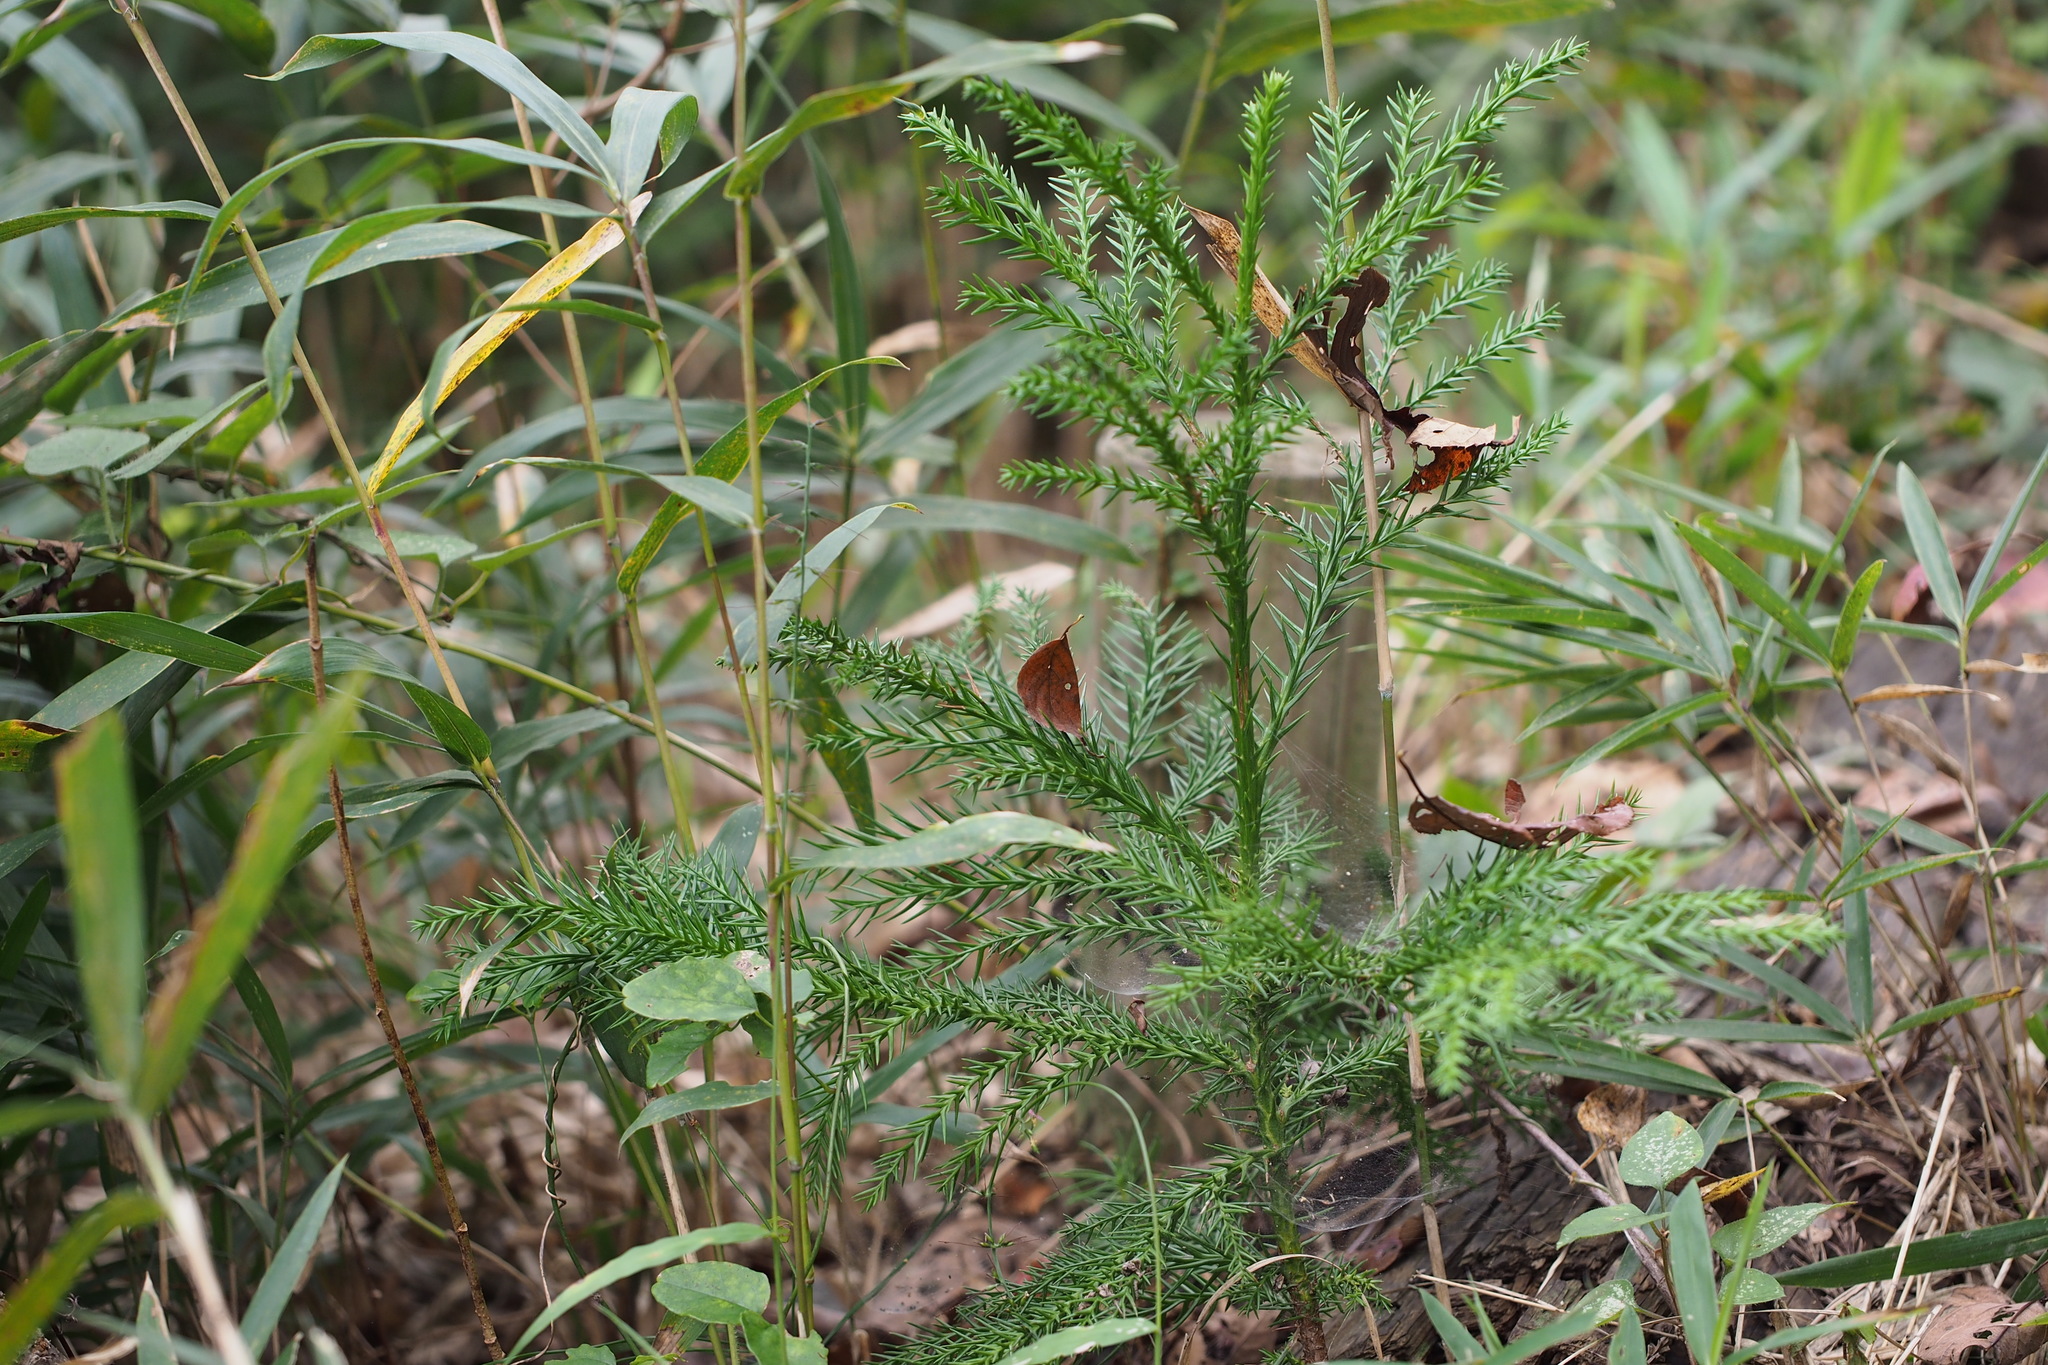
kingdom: Plantae
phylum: Tracheophyta
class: Pinopsida
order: Pinales
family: Cupressaceae
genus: Cryptomeria
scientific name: Cryptomeria japonica
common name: Japanese cedar
